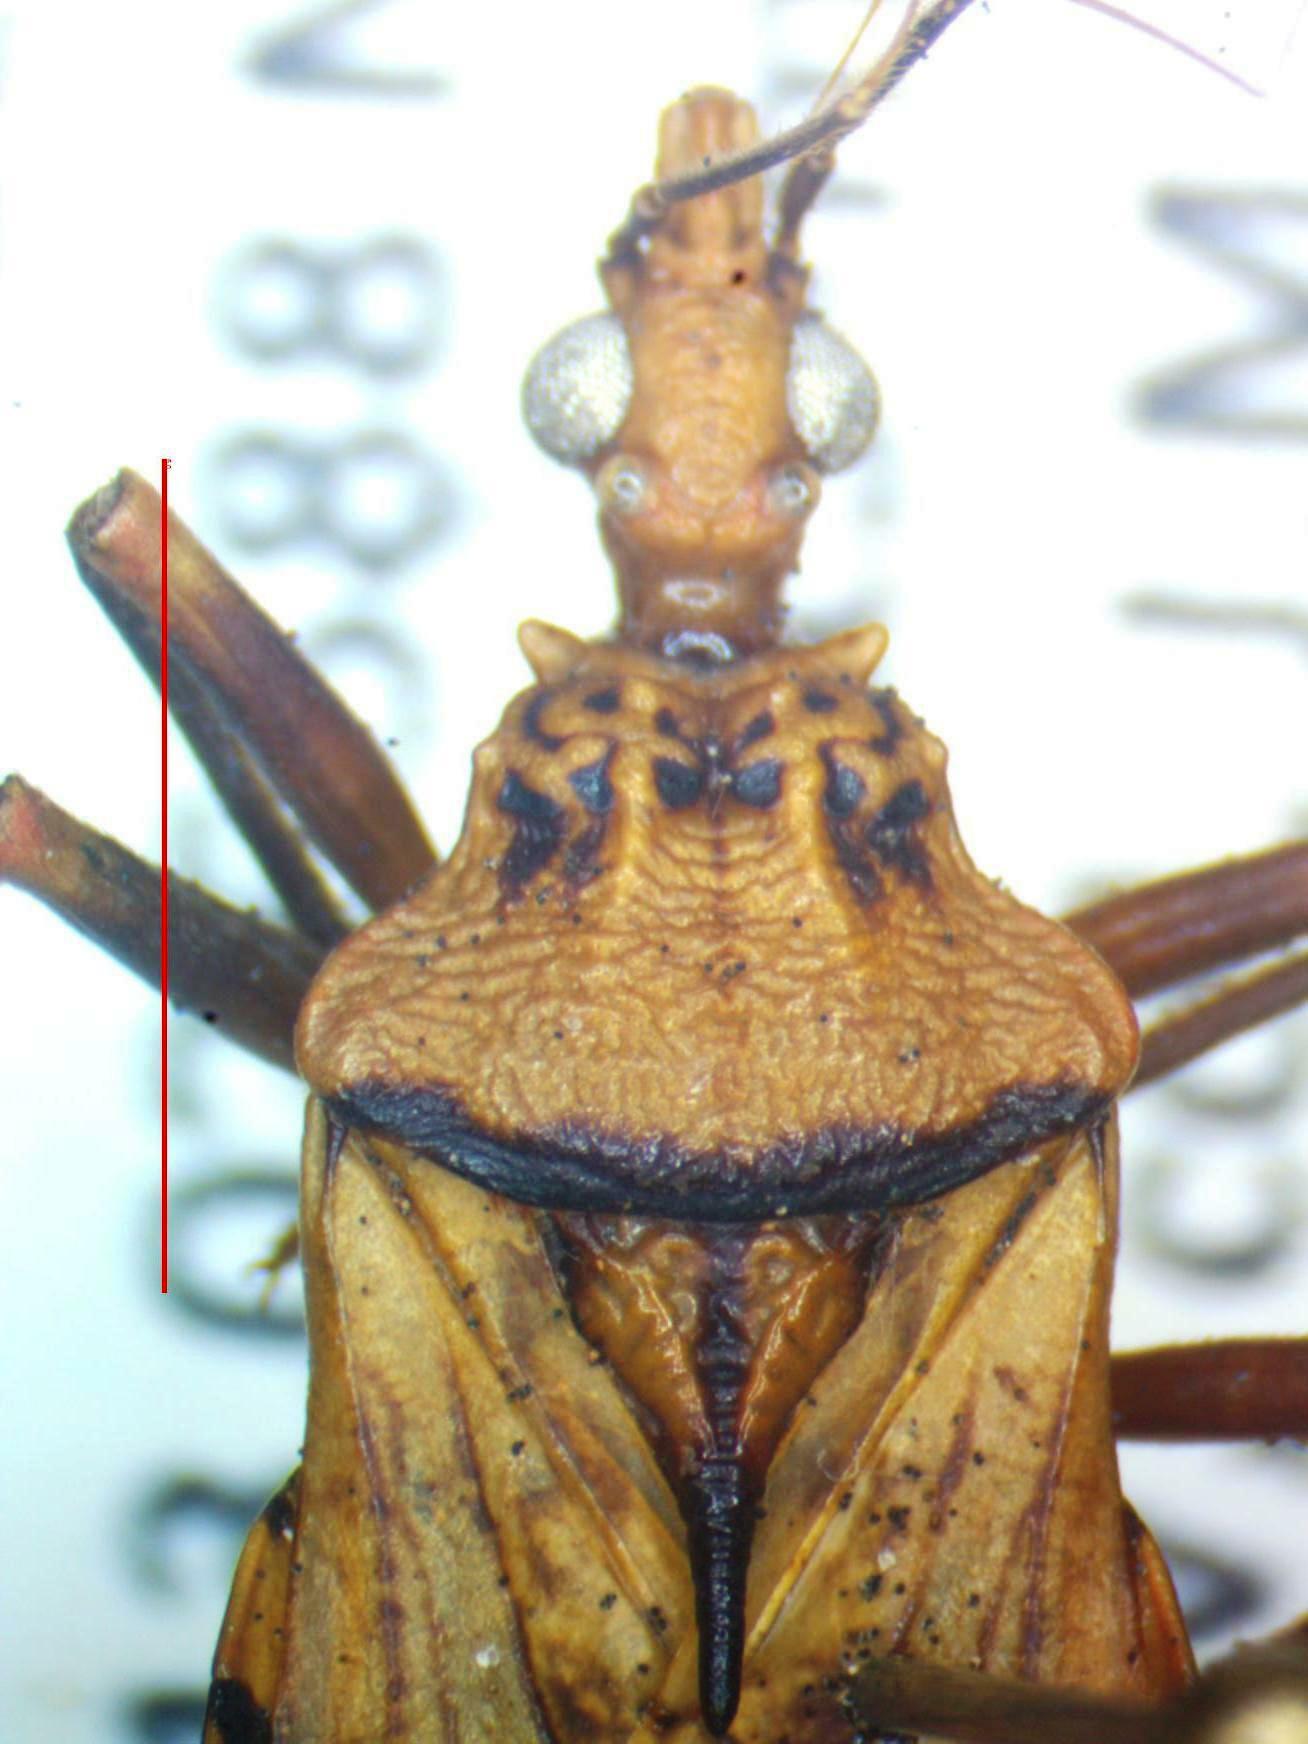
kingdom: Animalia
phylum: Arthropoda
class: Insecta
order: Hemiptera
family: Reduviidae
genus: Panstrongylus
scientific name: Panstrongylus geniculatus
